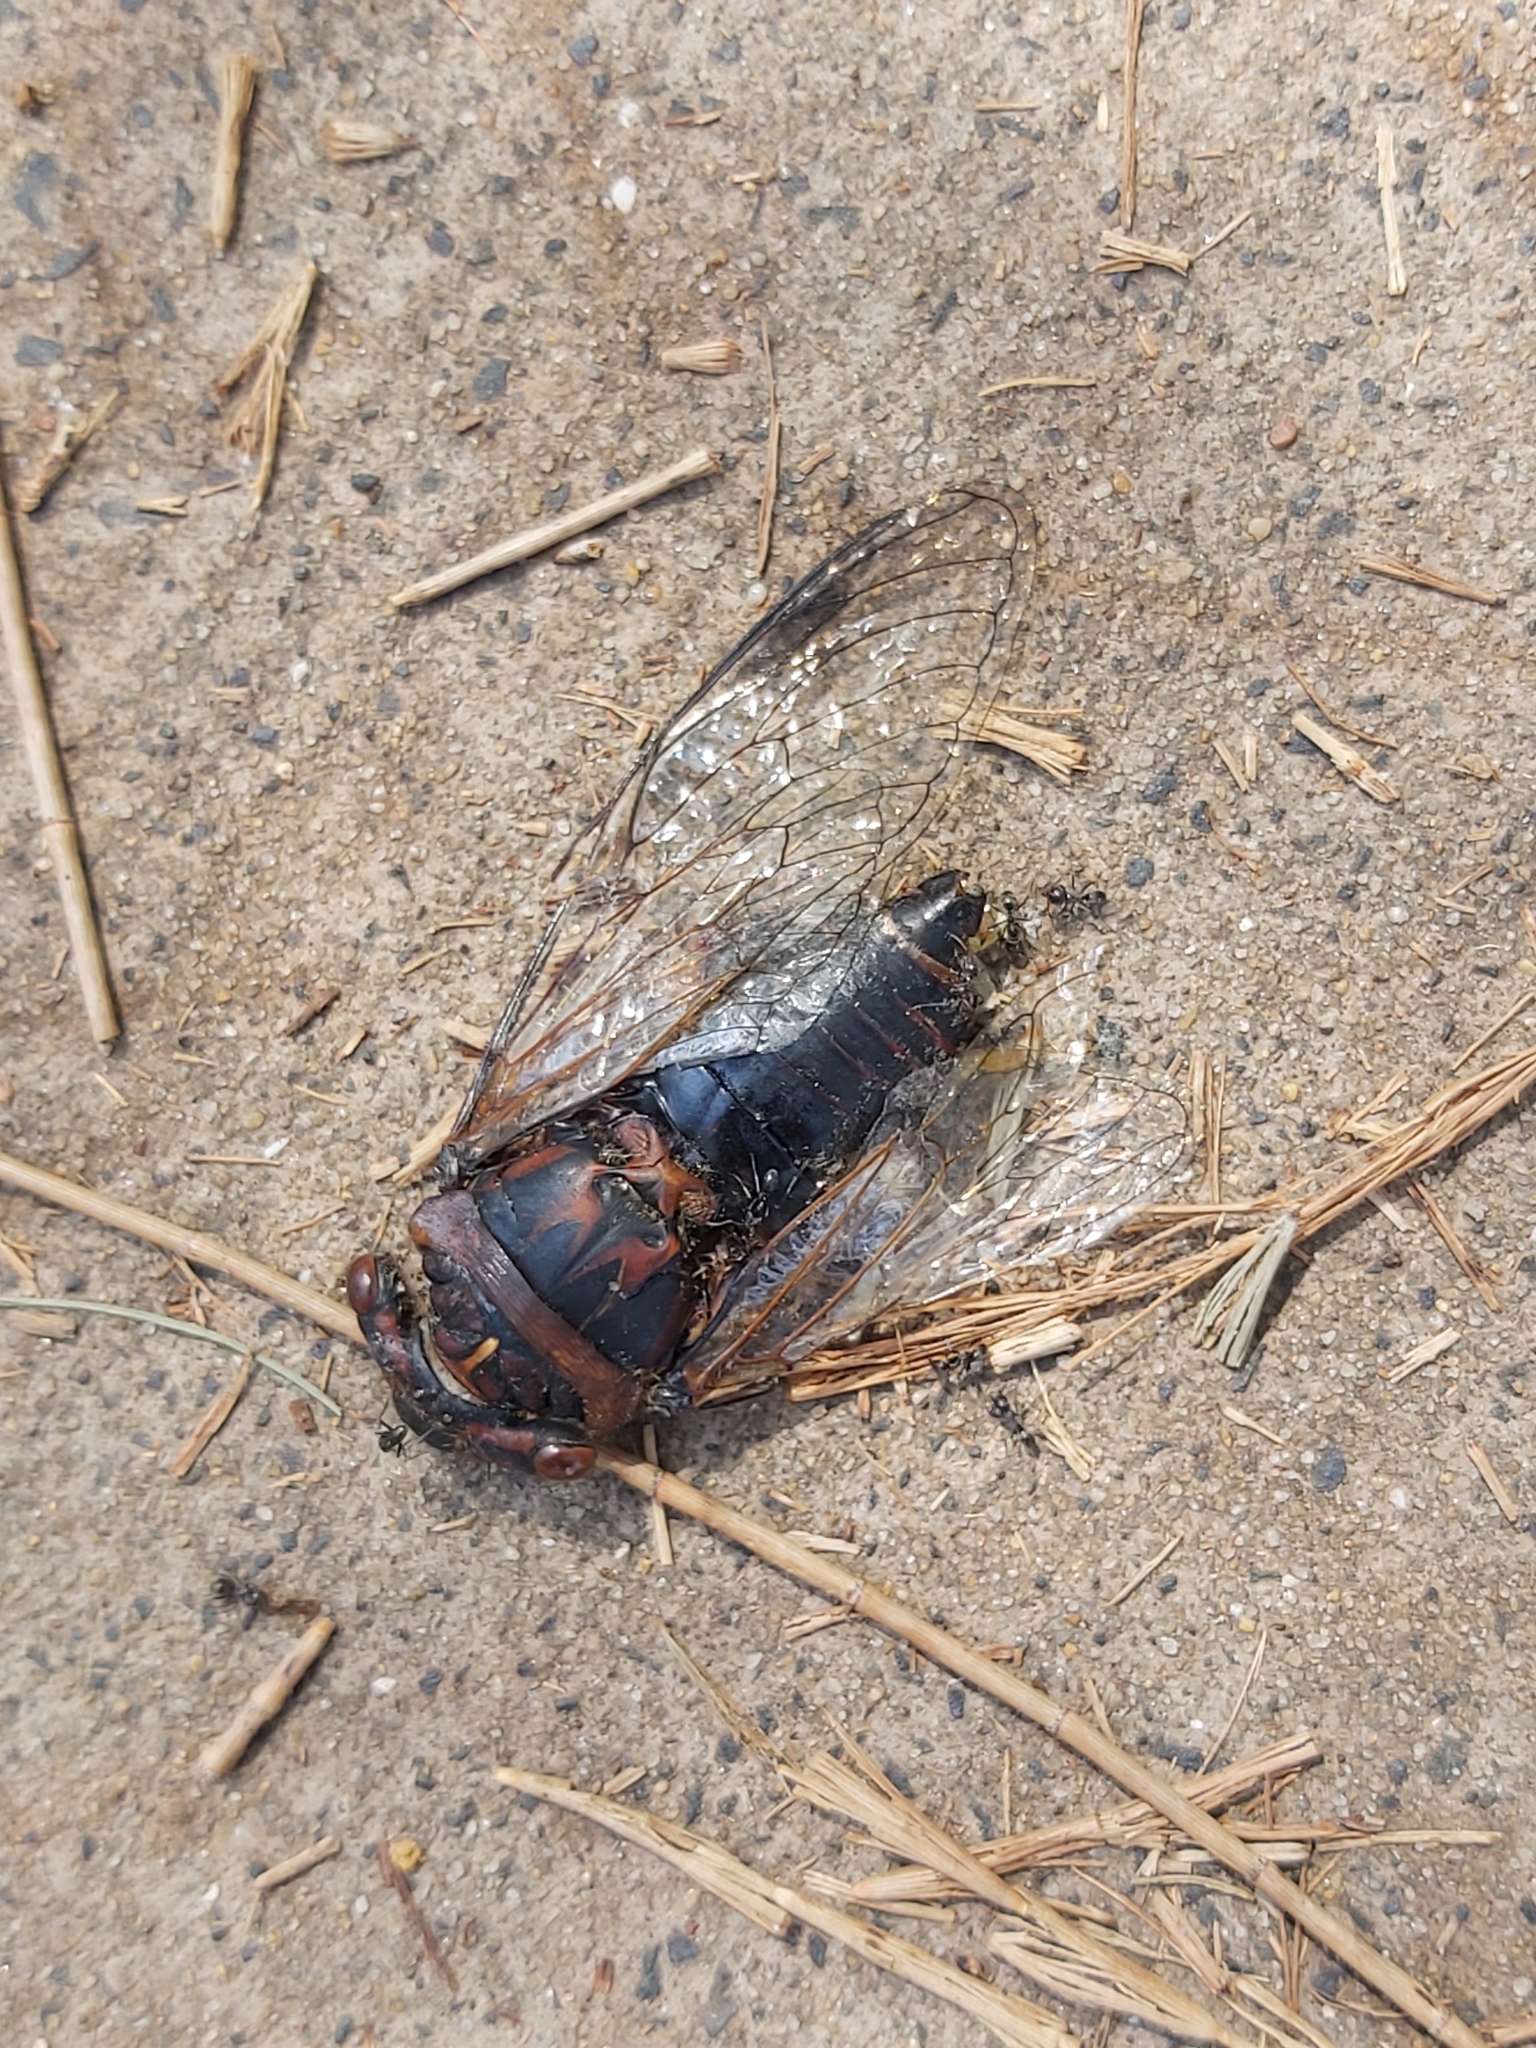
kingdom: Animalia
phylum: Arthropoda
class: Insecta
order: Hemiptera
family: Cicadidae
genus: Psaltoda
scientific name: Psaltoda plaga
